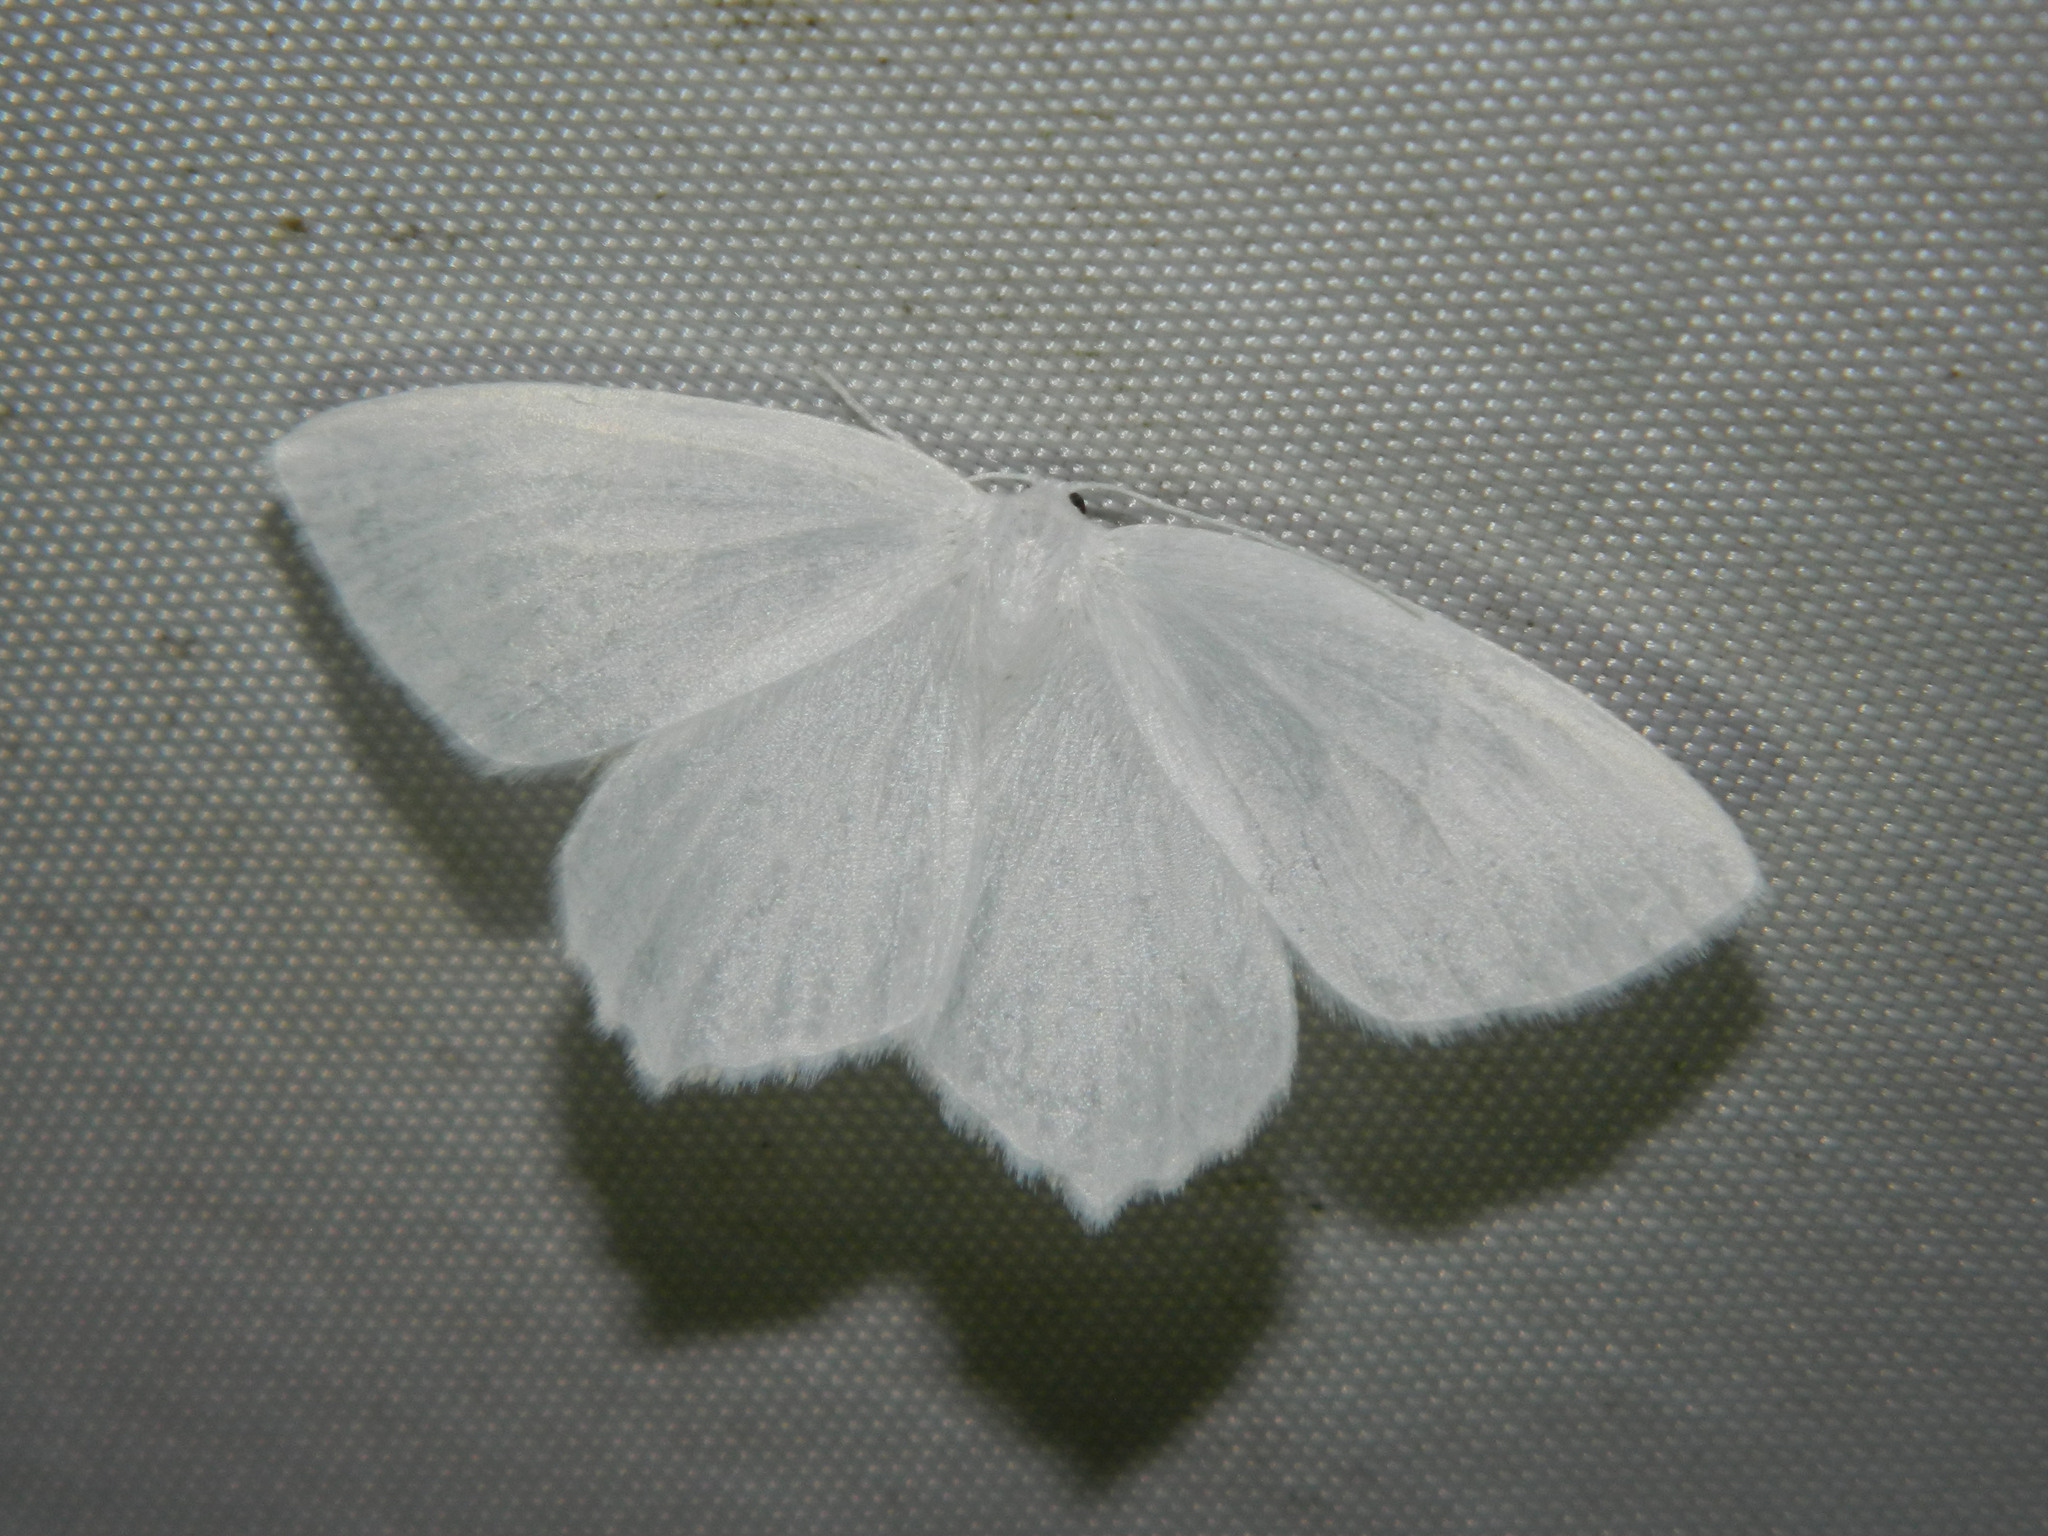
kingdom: Animalia
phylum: Arthropoda
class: Insecta
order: Lepidoptera
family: Geometridae
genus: Eugonobapta
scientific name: Eugonobapta nivosaria
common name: Snowy geometer
